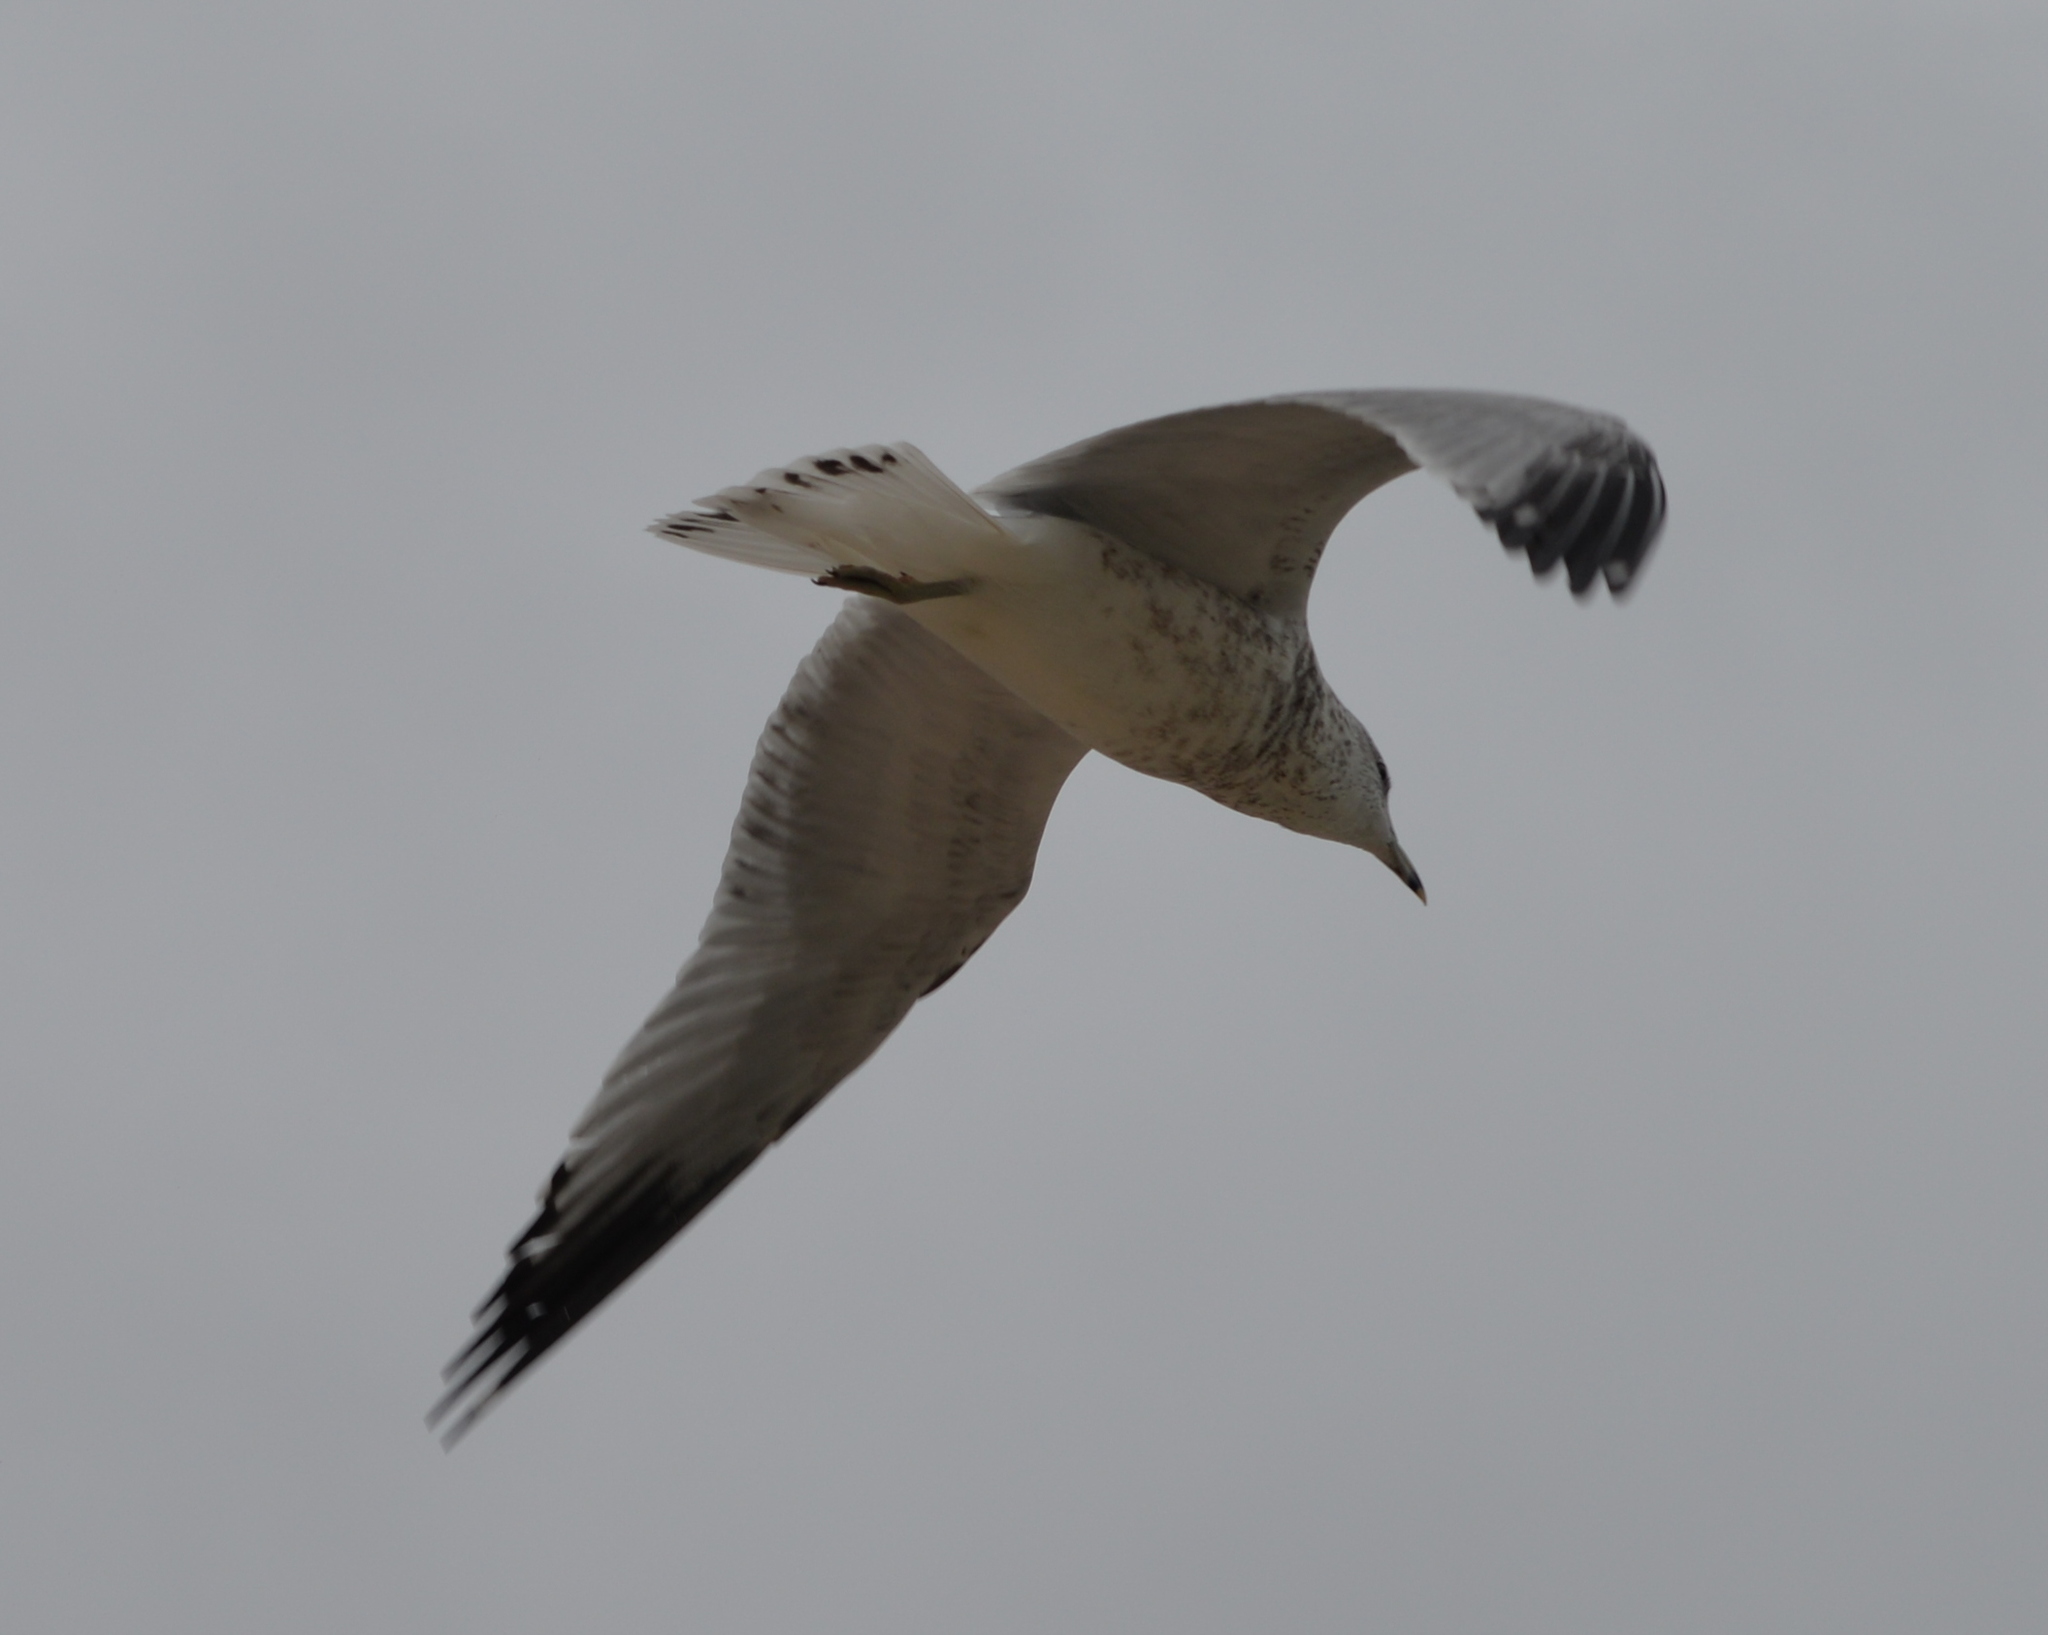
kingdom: Animalia
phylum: Chordata
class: Aves
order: Charadriiformes
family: Laridae
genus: Larus
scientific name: Larus delawarensis
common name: Ring-billed gull
